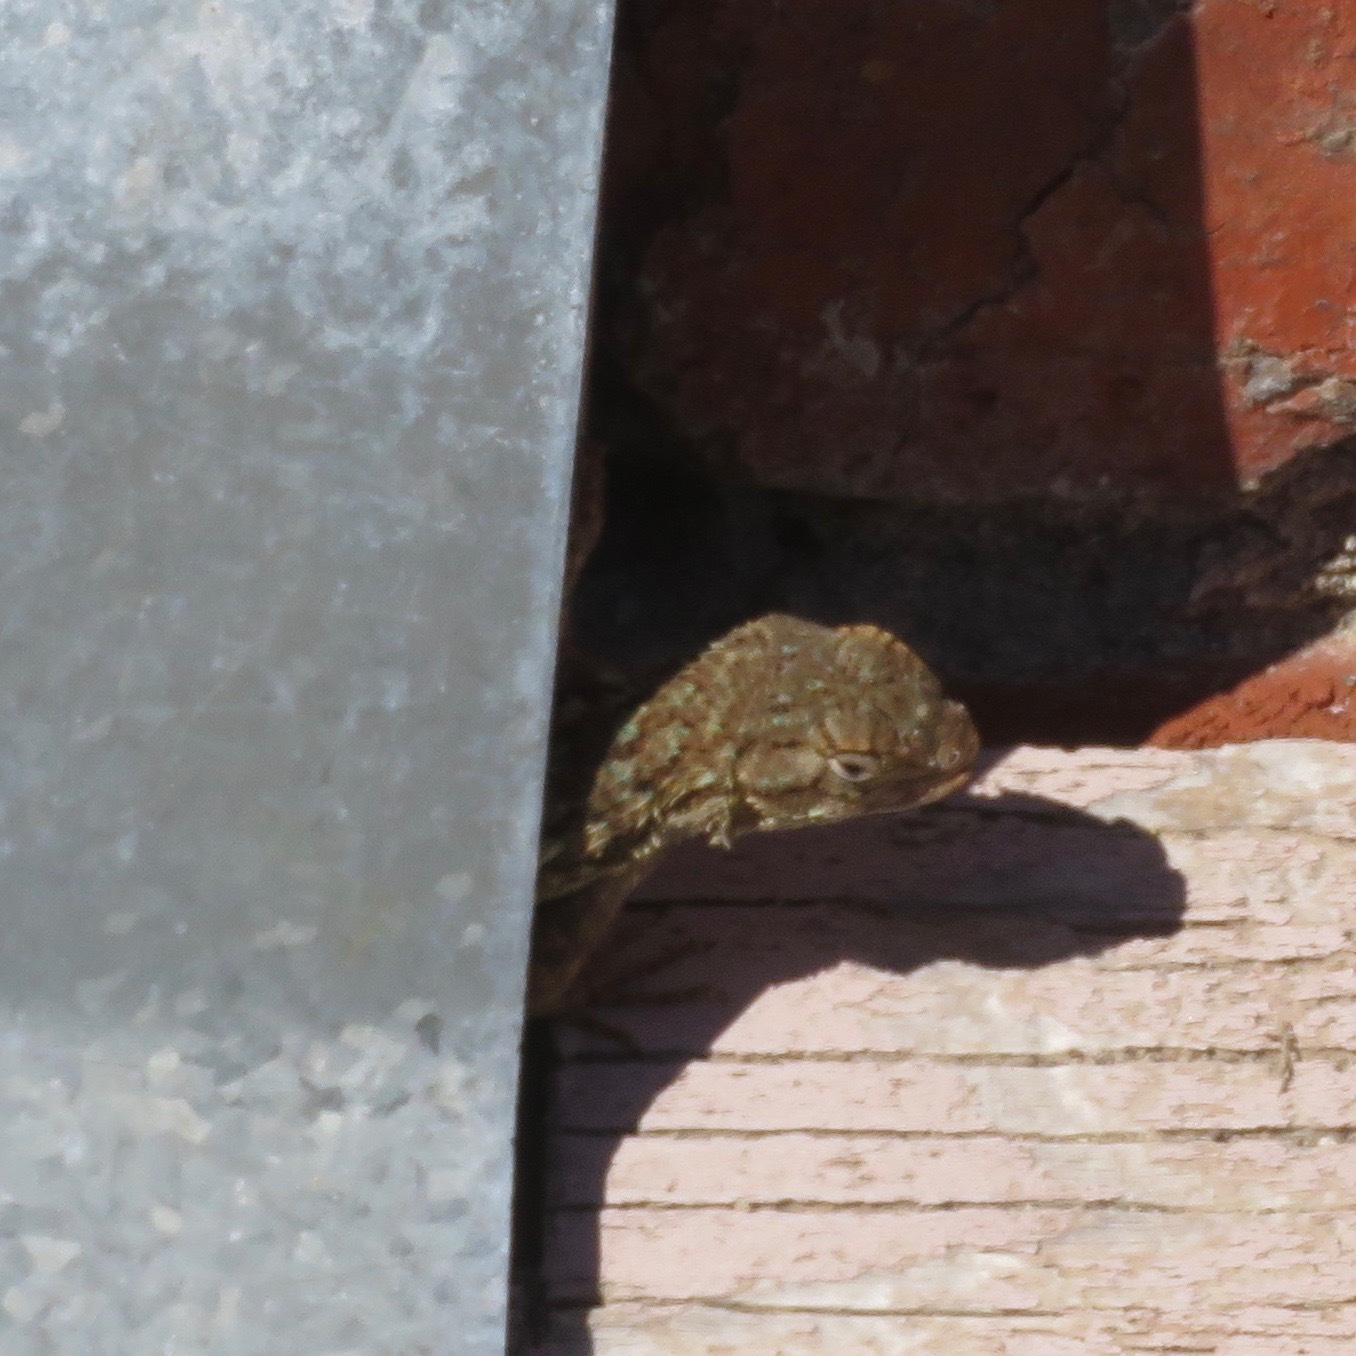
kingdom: Animalia
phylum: Chordata
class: Squamata
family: Phrynosomatidae
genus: Sceloporus
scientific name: Sceloporus occidentalis
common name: Western fence lizard
